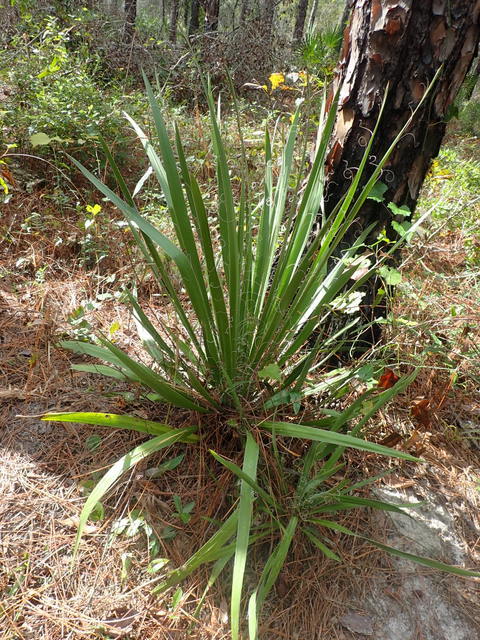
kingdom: Plantae
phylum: Tracheophyta
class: Liliopsida
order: Asparagales
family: Asparagaceae
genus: Yucca
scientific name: Yucca filamentosa
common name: Adam's-needle
